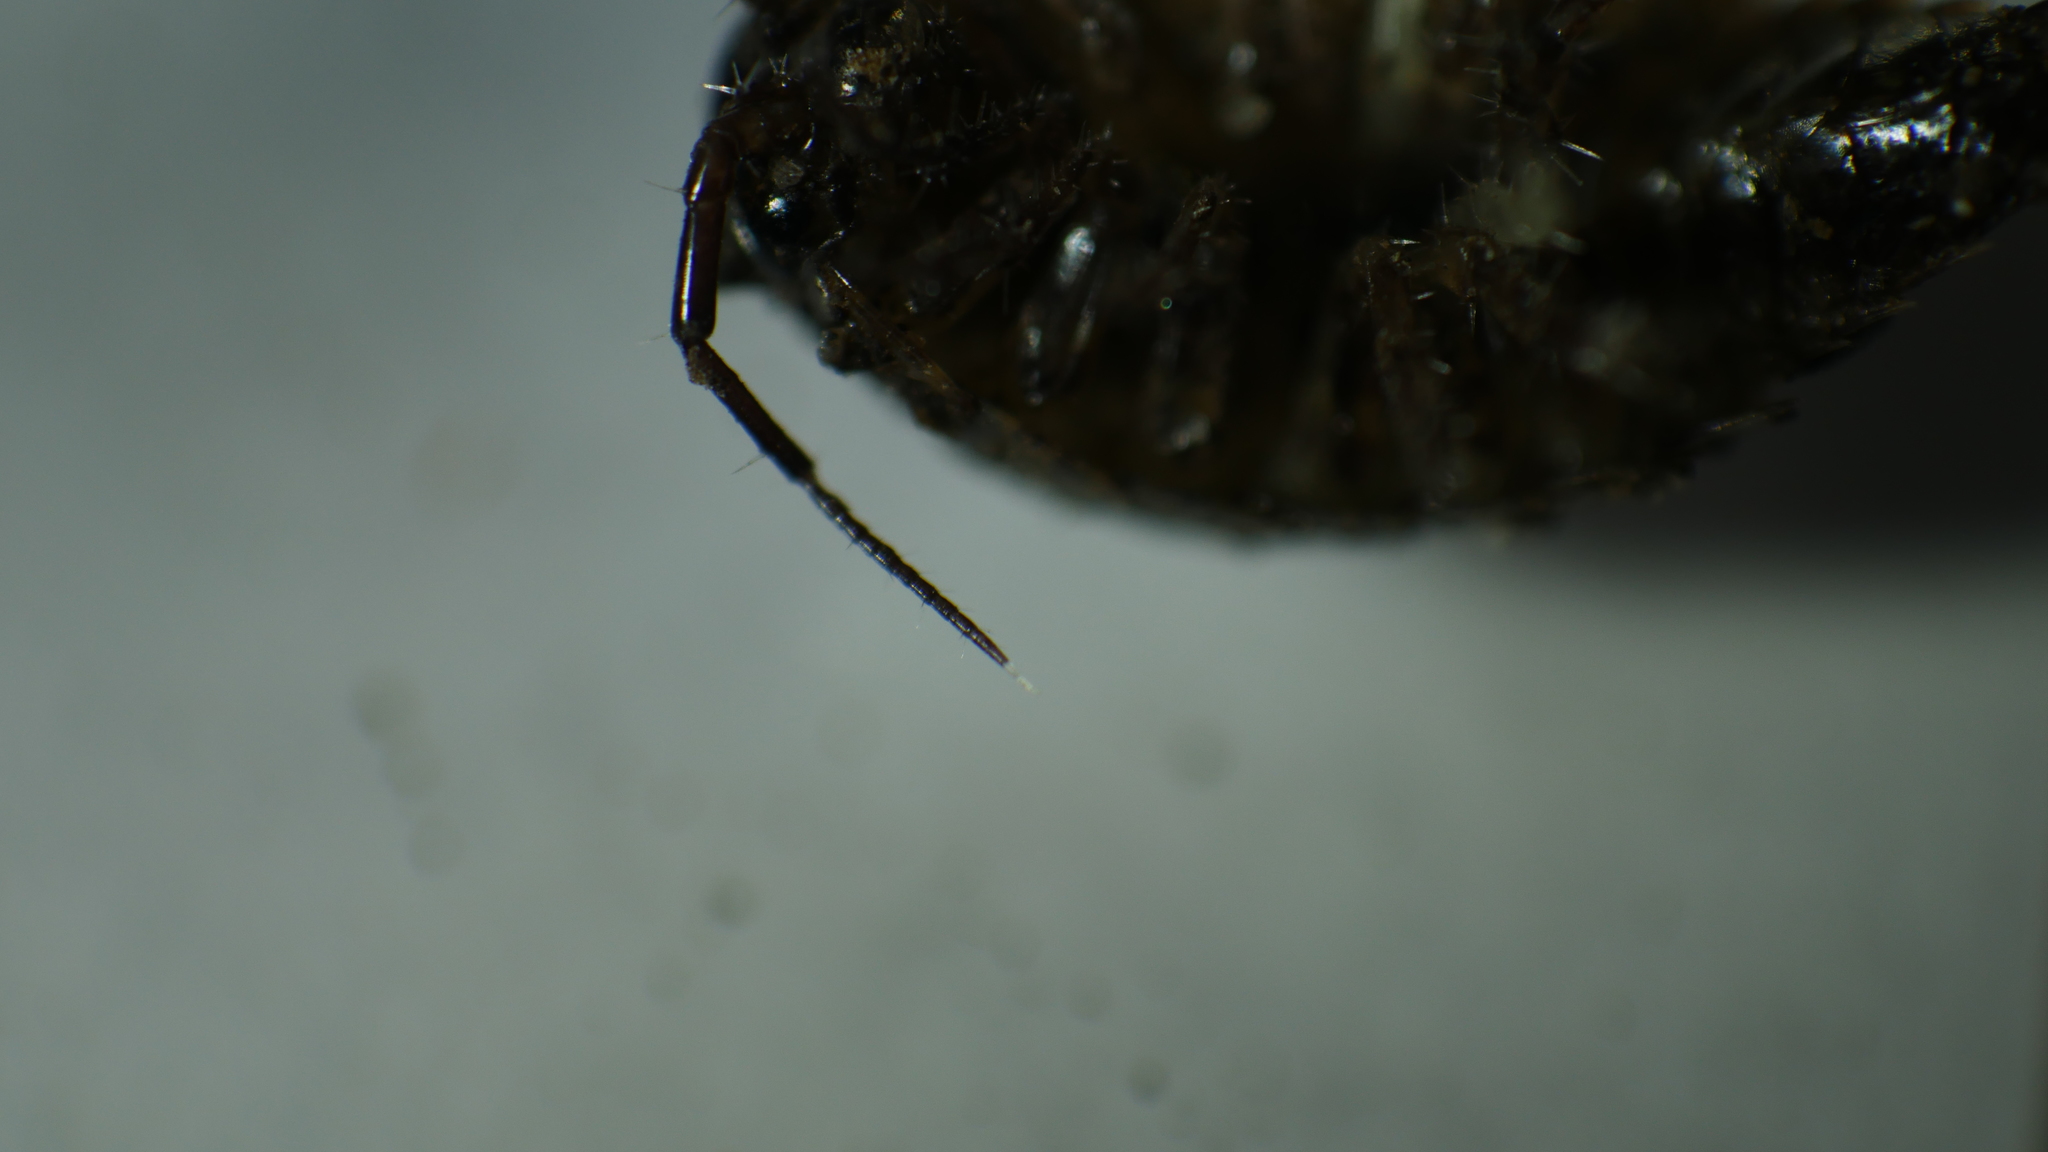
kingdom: Animalia
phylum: Arthropoda
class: Malacostraca
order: Isopoda
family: Ligiidae
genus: Ligidium
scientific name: Ligidium elrodii
